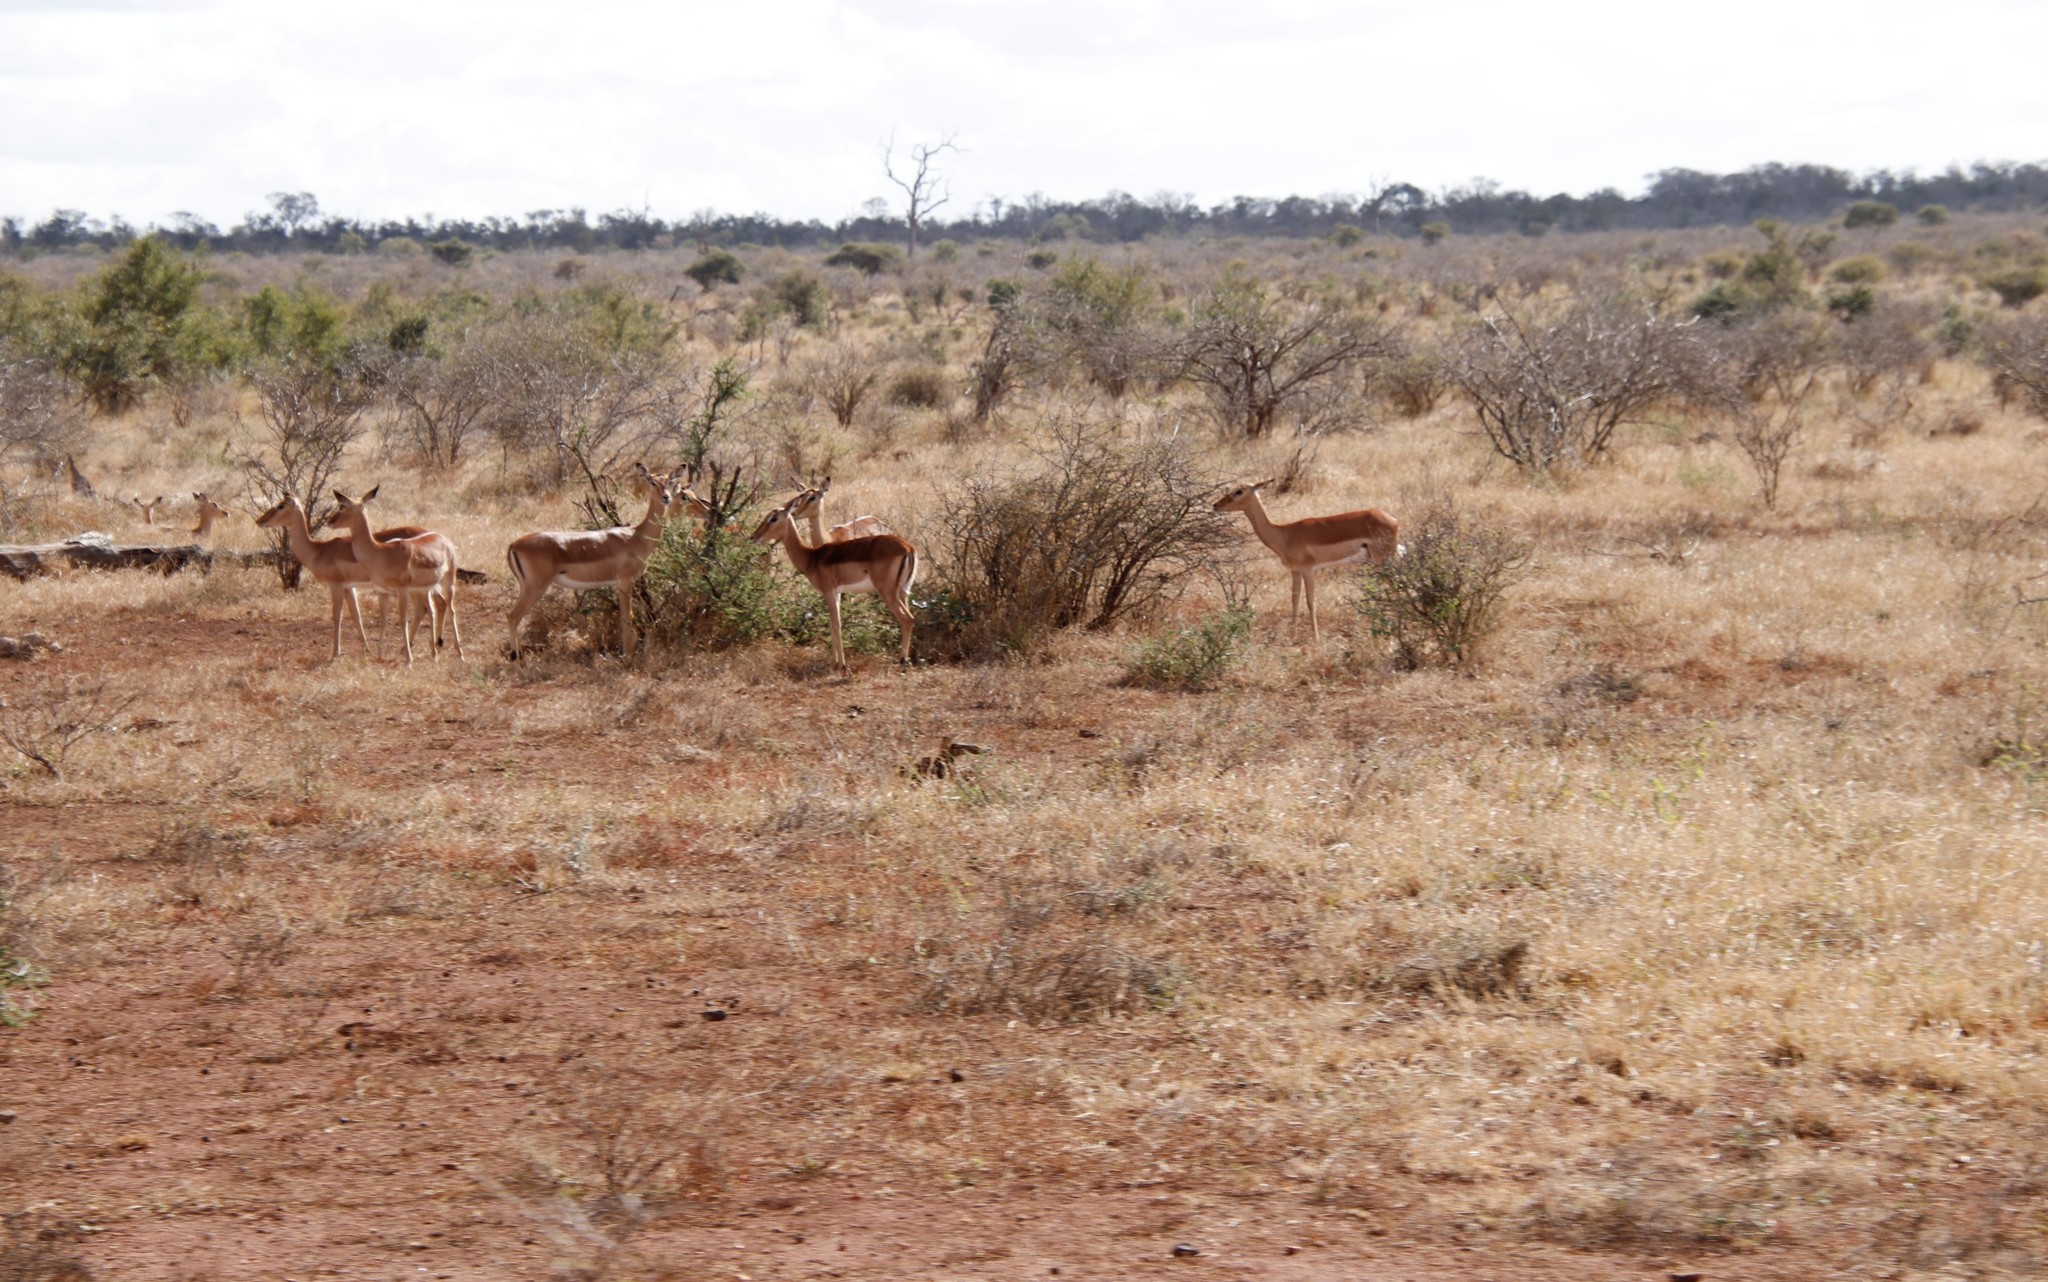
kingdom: Animalia
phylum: Chordata
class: Mammalia
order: Artiodactyla
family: Bovidae
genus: Aepyceros
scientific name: Aepyceros melampus
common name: Impala
